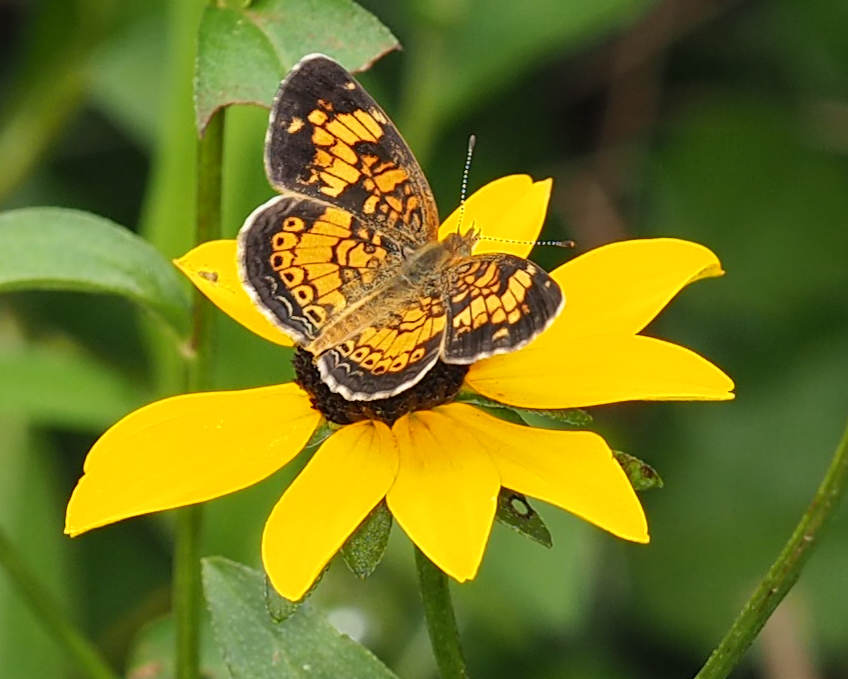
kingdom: Animalia
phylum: Arthropoda
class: Insecta
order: Lepidoptera
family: Nymphalidae
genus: Phyciodes
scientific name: Phyciodes tharos
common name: Pearl crescent
